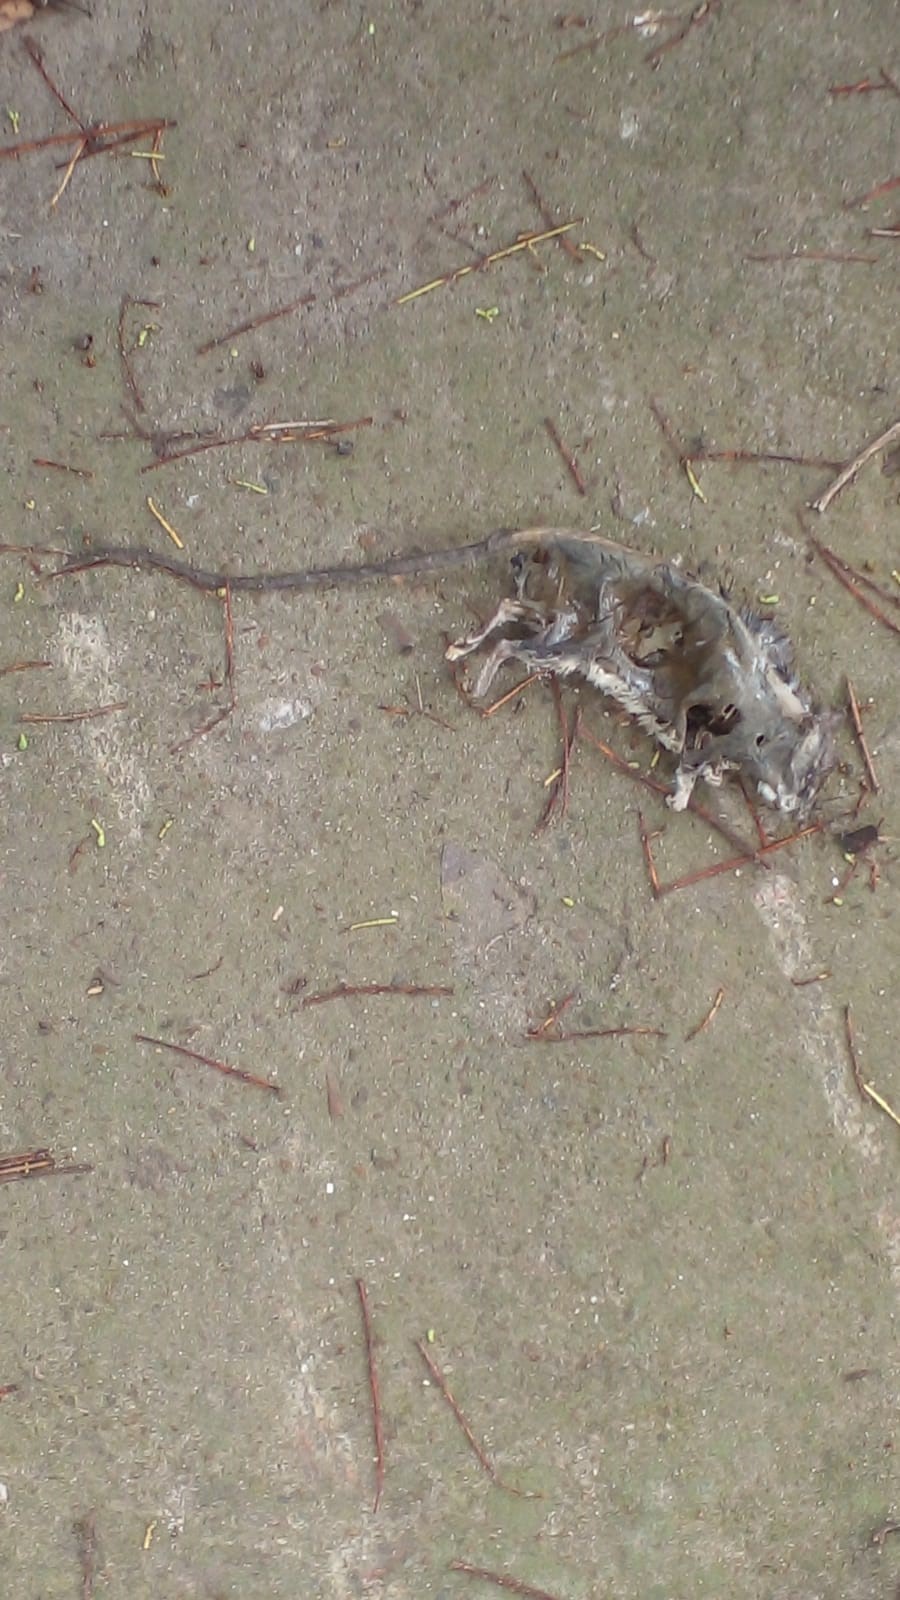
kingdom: Animalia
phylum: Chordata
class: Mammalia
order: Rodentia
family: Muridae
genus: Rattus
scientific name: Rattus rattus
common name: Black rat
